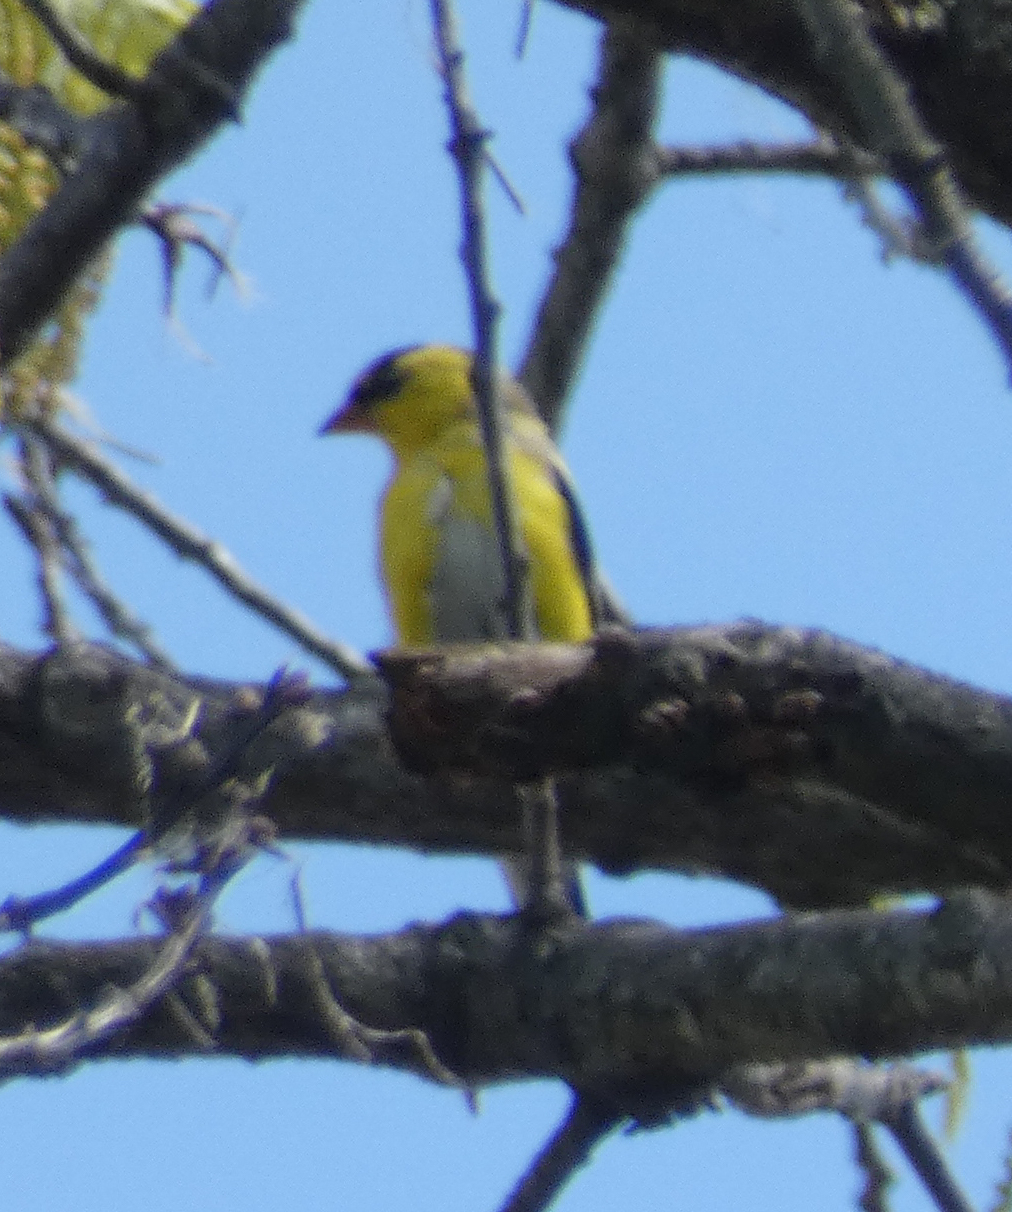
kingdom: Animalia
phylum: Chordata
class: Aves
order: Passeriformes
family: Fringillidae
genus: Spinus
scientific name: Spinus tristis
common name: American goldfinch
